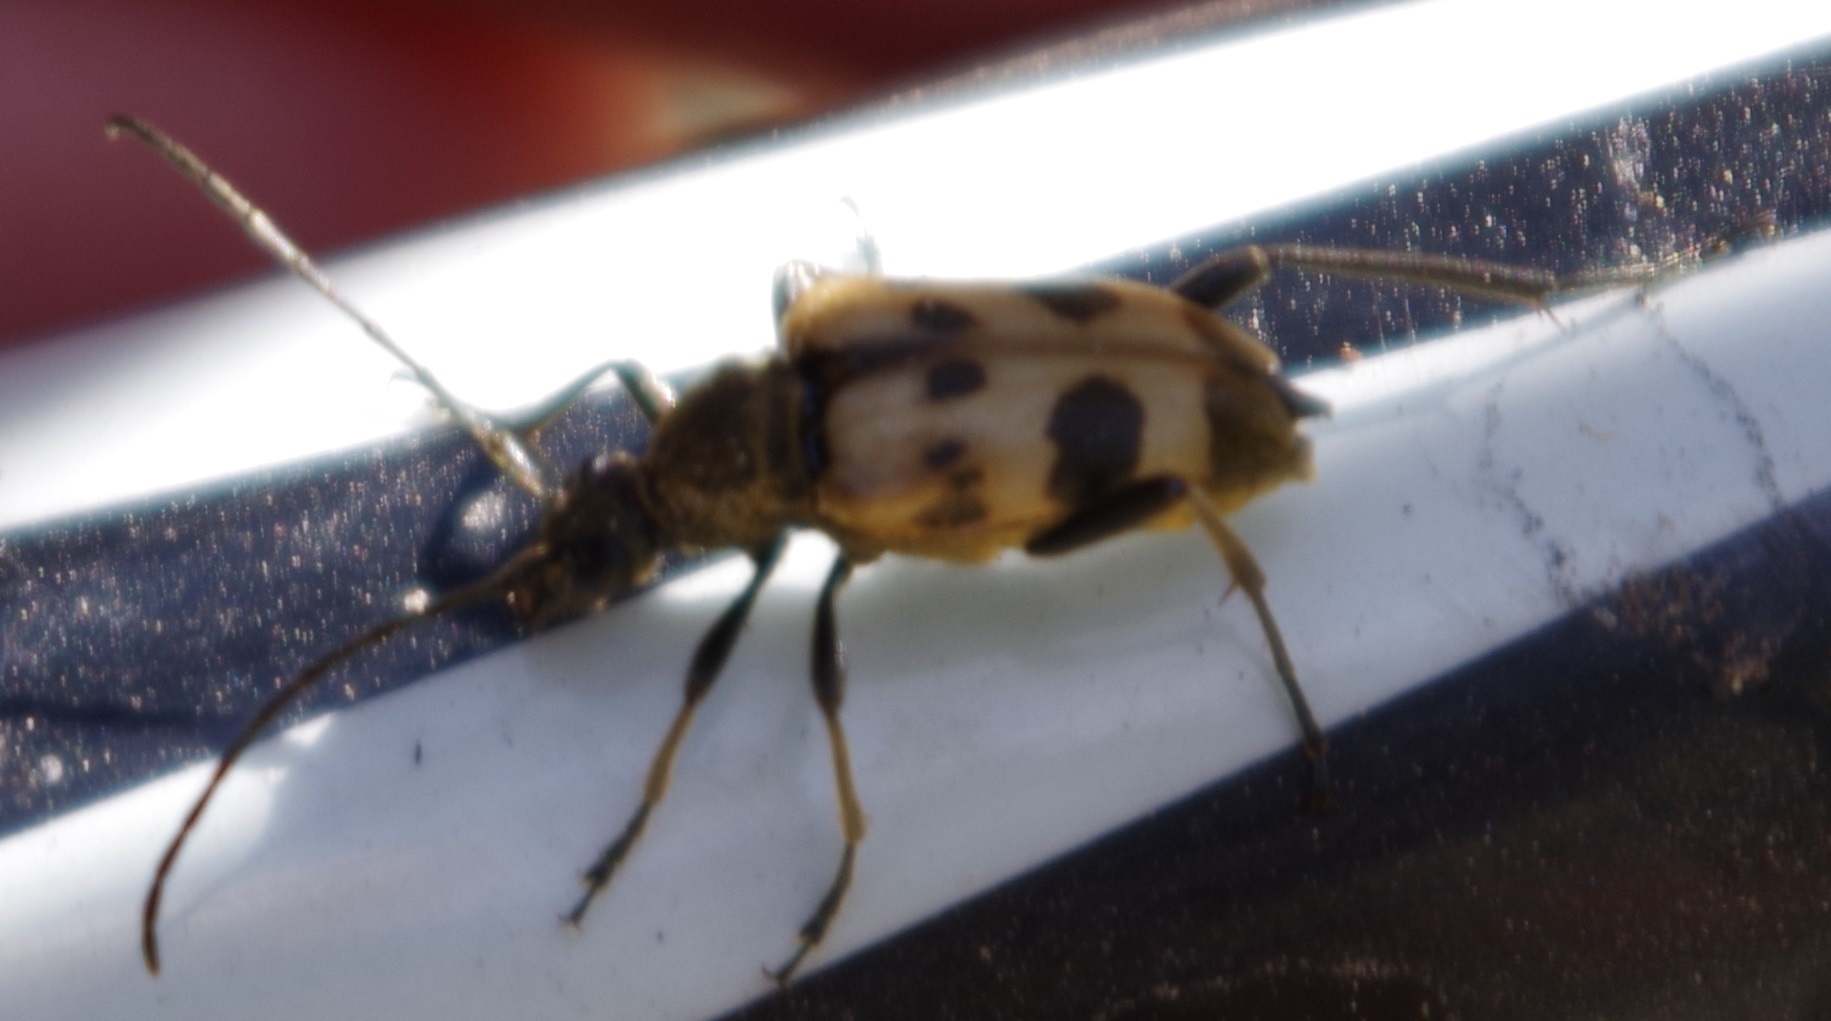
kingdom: Animalia
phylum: Arthropoda
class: Insecta
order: Coleoptera
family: Cerambycidae
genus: Pachytodes
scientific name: Pachytodes cerambyciformis
